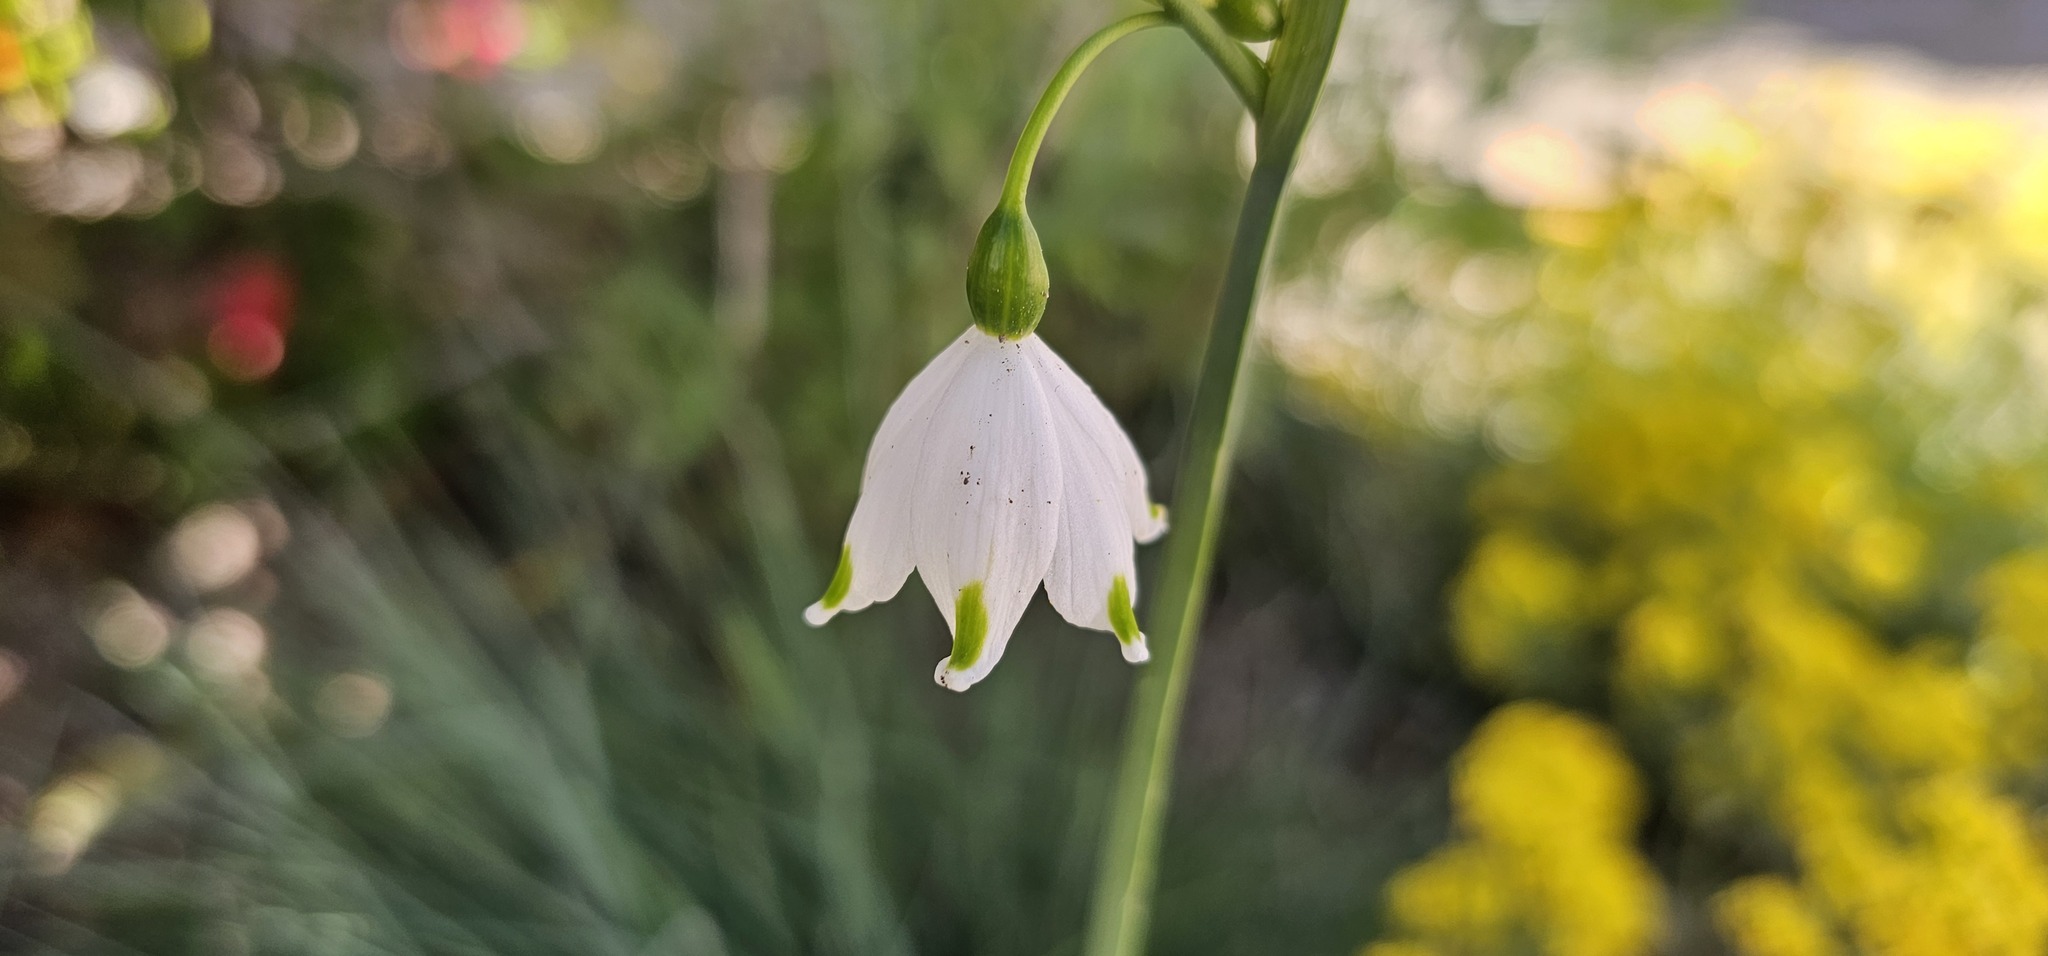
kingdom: Plantae
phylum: Tracheophyta
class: Liliopsida
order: Asparagales
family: Amaryllidaceae
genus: Leucojum
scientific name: Leucojum aestivum
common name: Summer snowflake
